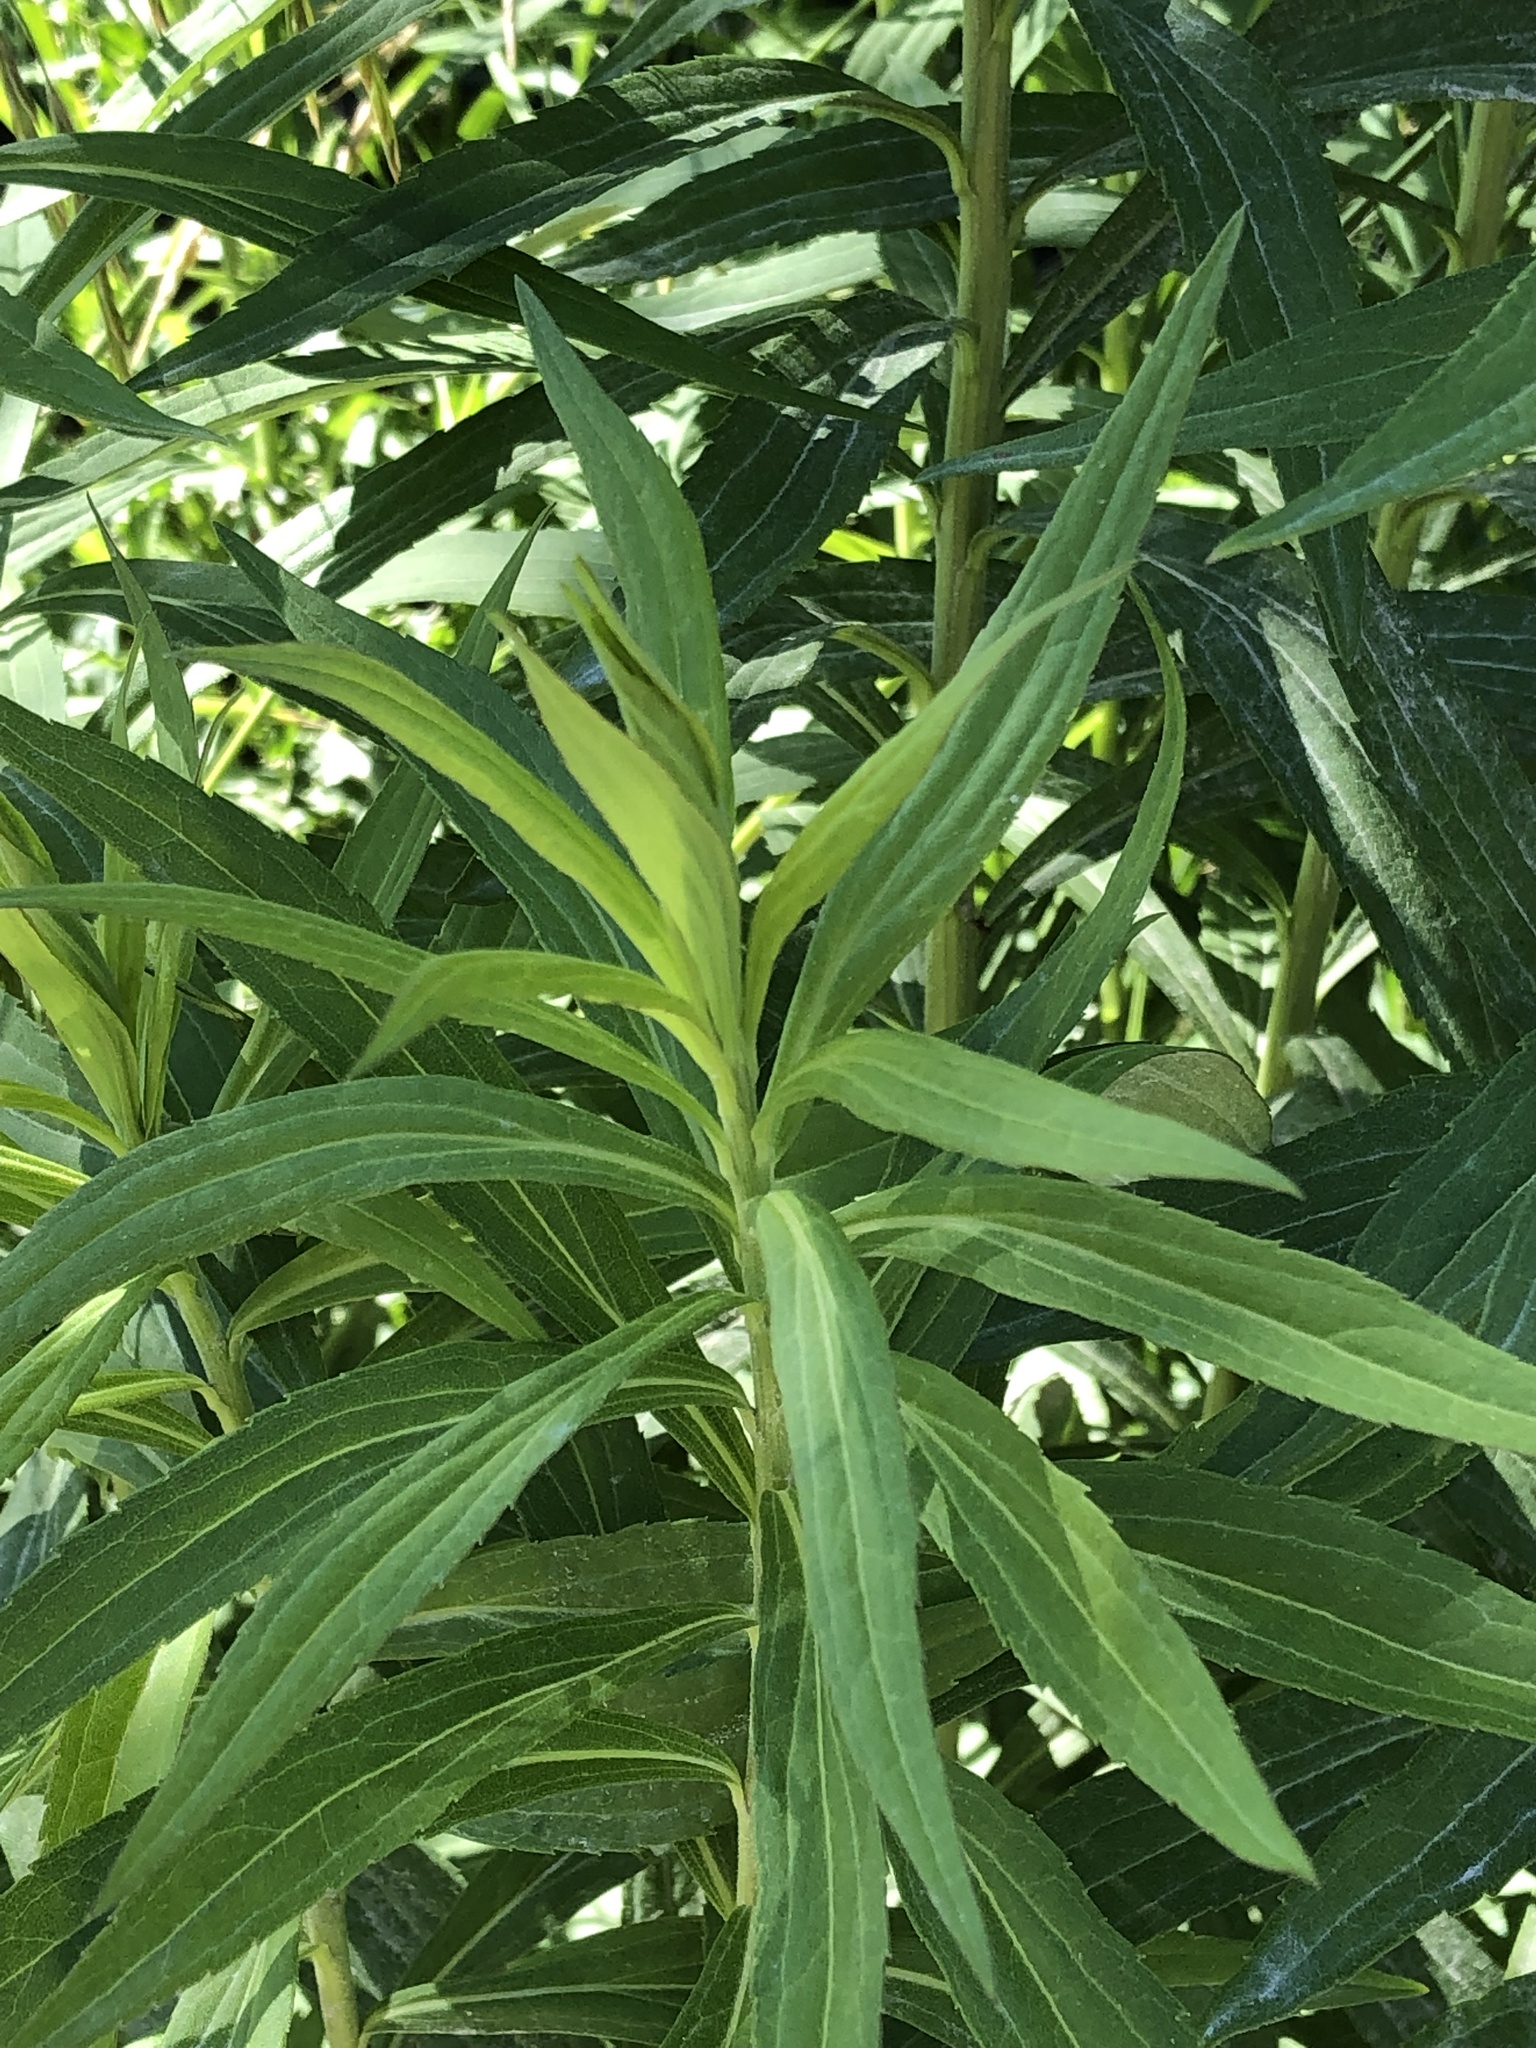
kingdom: Plantae
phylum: Tracheophyta
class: Magnoliopsida
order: Asterales
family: Asteraceae
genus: Solidago
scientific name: Solidago canadensis
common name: Canada goldenrod
